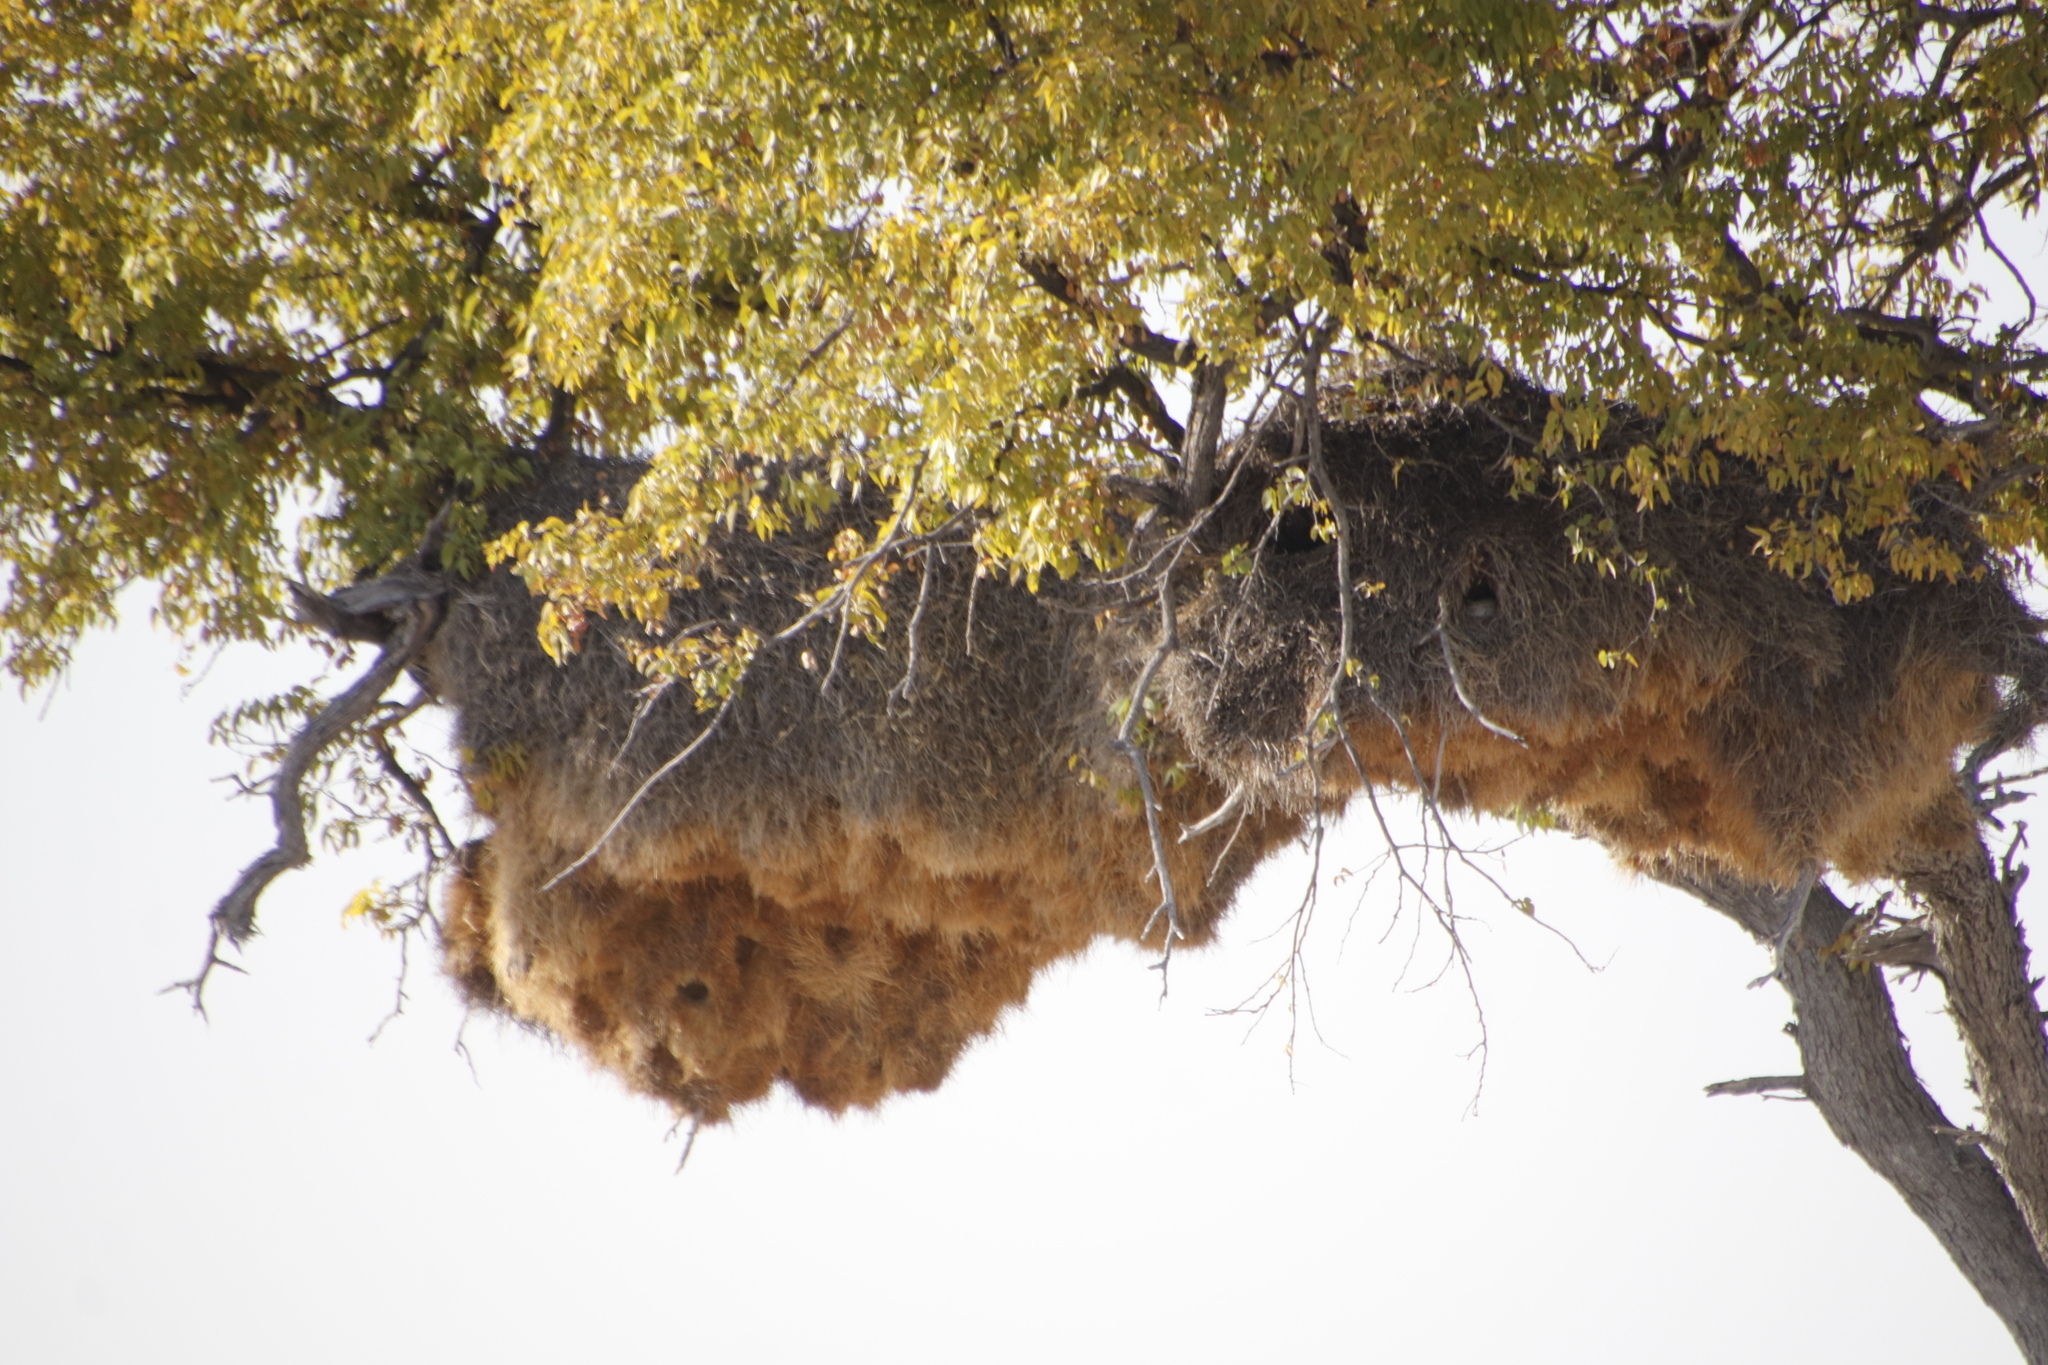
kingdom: Animalia
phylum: Chordata
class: Aves
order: Passeriformes
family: Passeridae
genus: Philetairus
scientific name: Philetairus socius
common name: Sociable weaver
